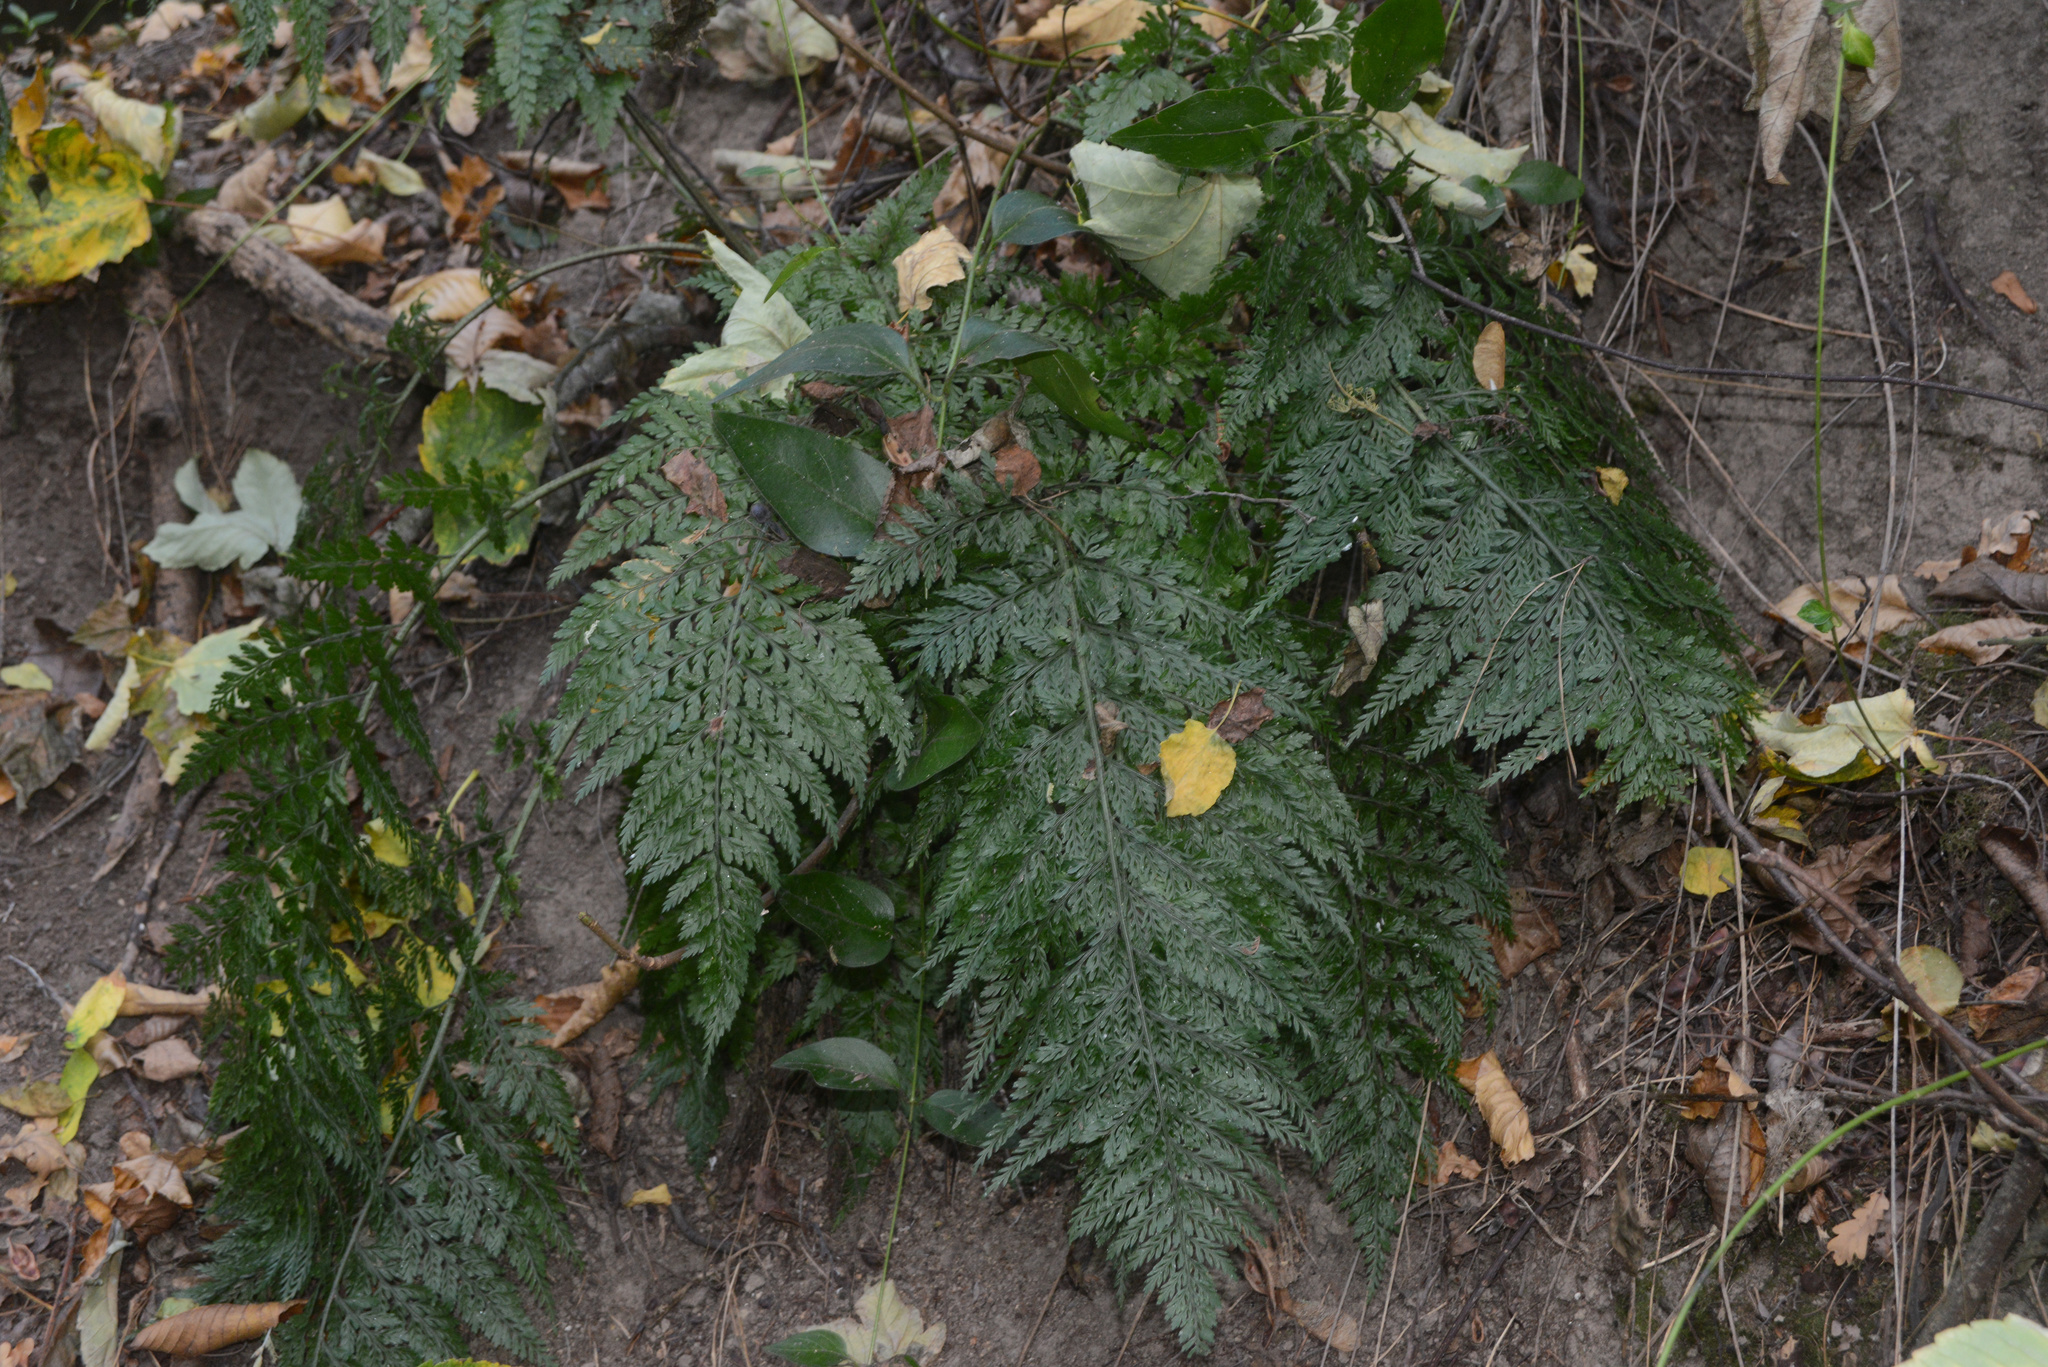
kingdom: Plantae
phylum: Tracheophyta
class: Polypodiopsida
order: Polypodiales
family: Aspleniaceae
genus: Asplenium
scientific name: Asplenium
